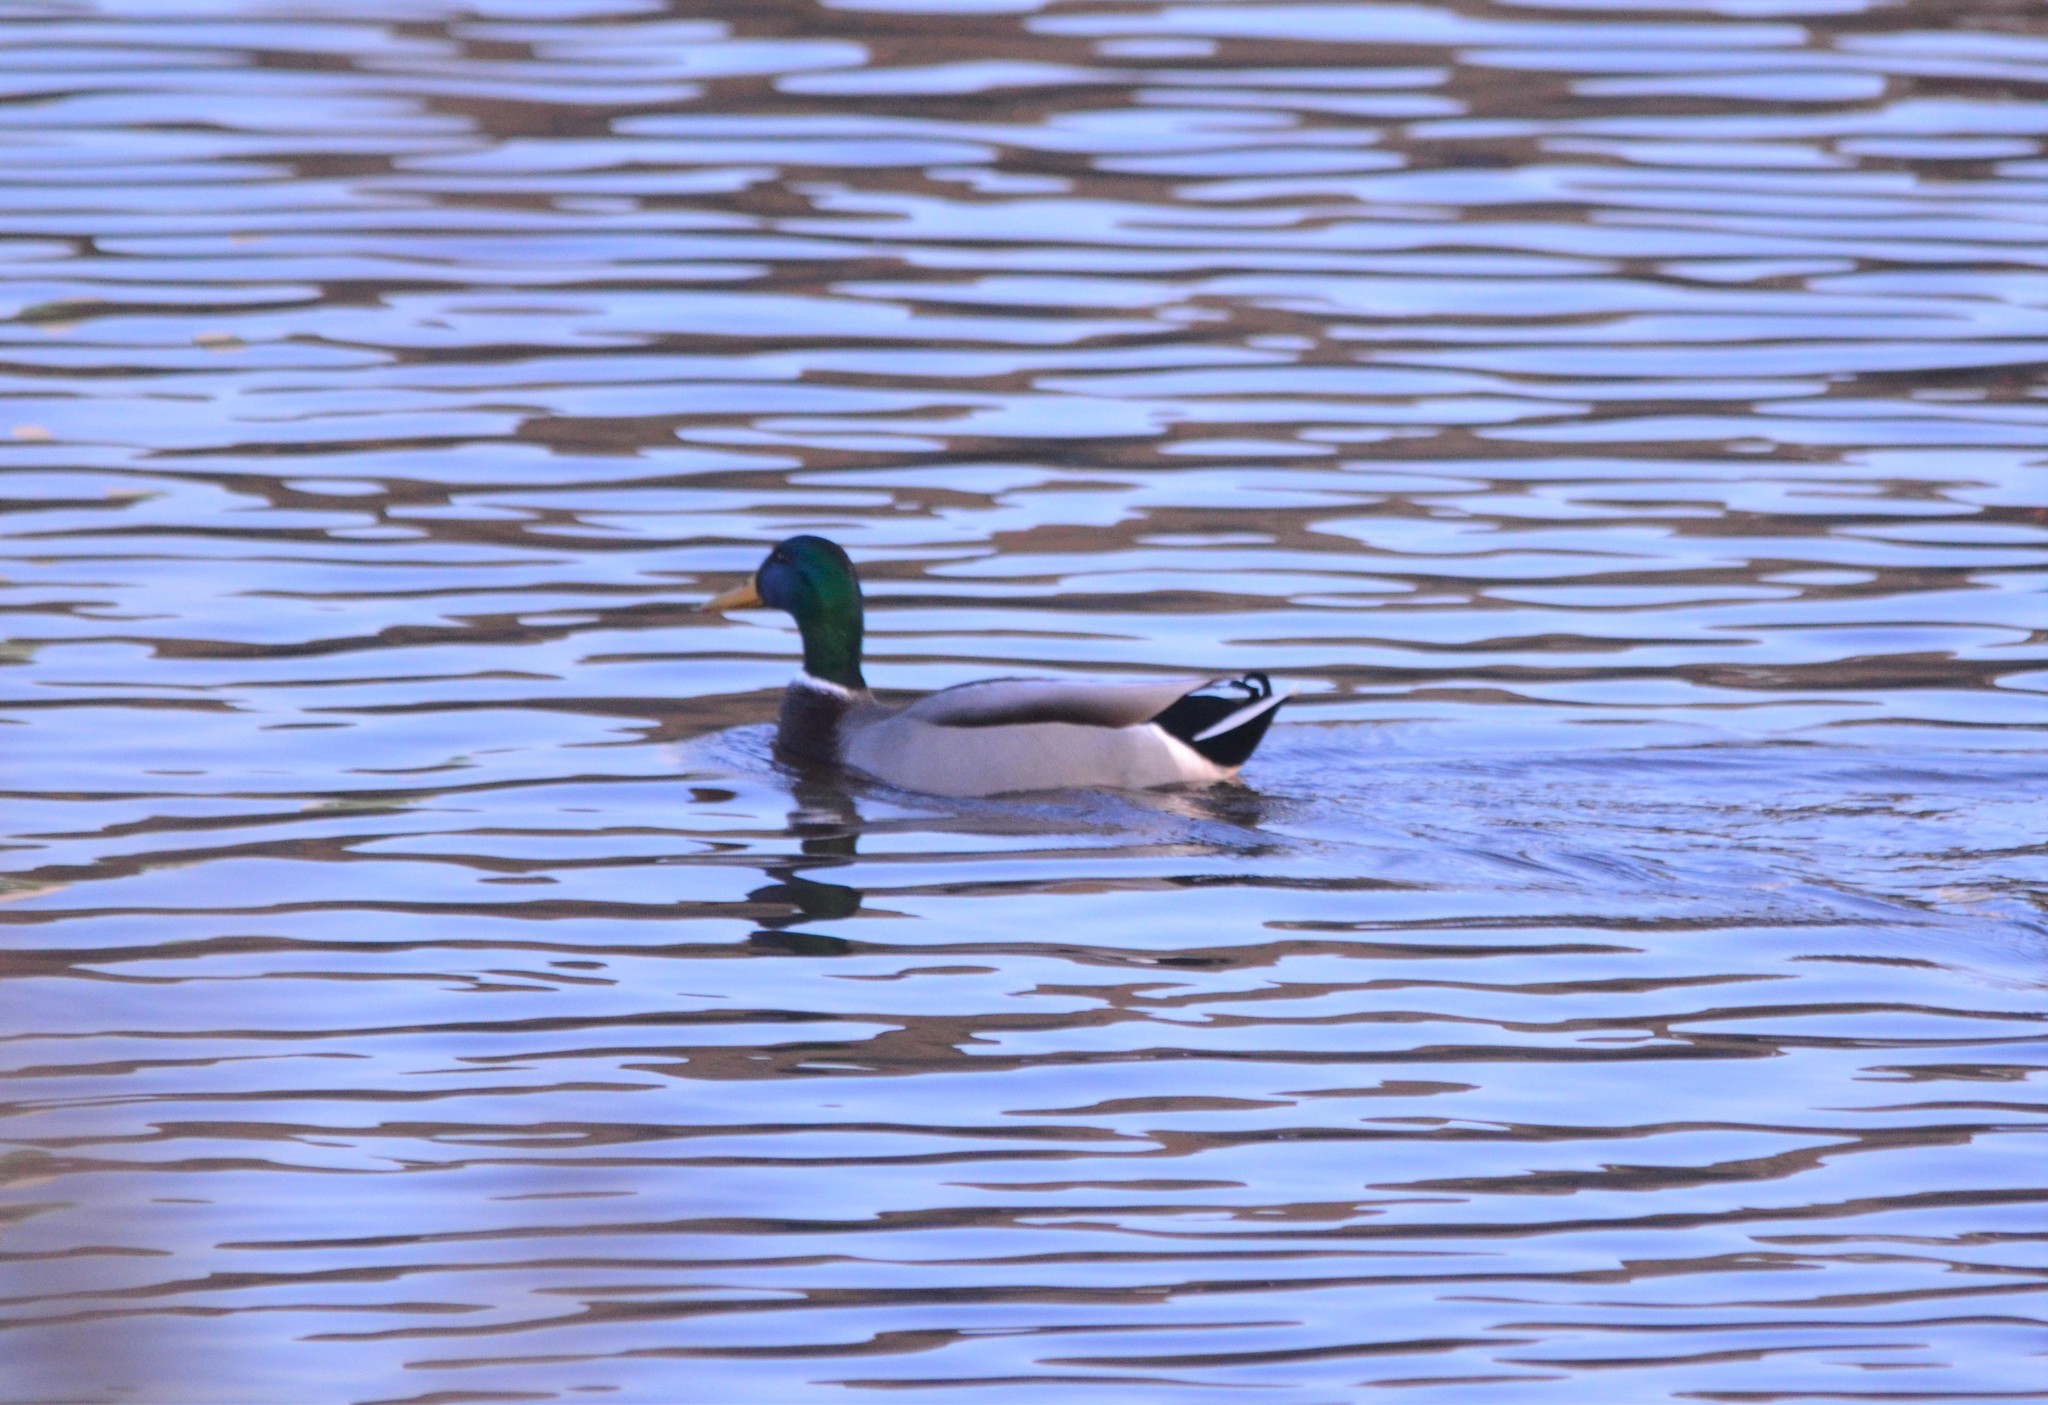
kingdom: Animalia
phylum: Chordata
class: Aves
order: Anseriformes
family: Anatidae
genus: Anas
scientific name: Anas platyrhynchos
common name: Mallard
